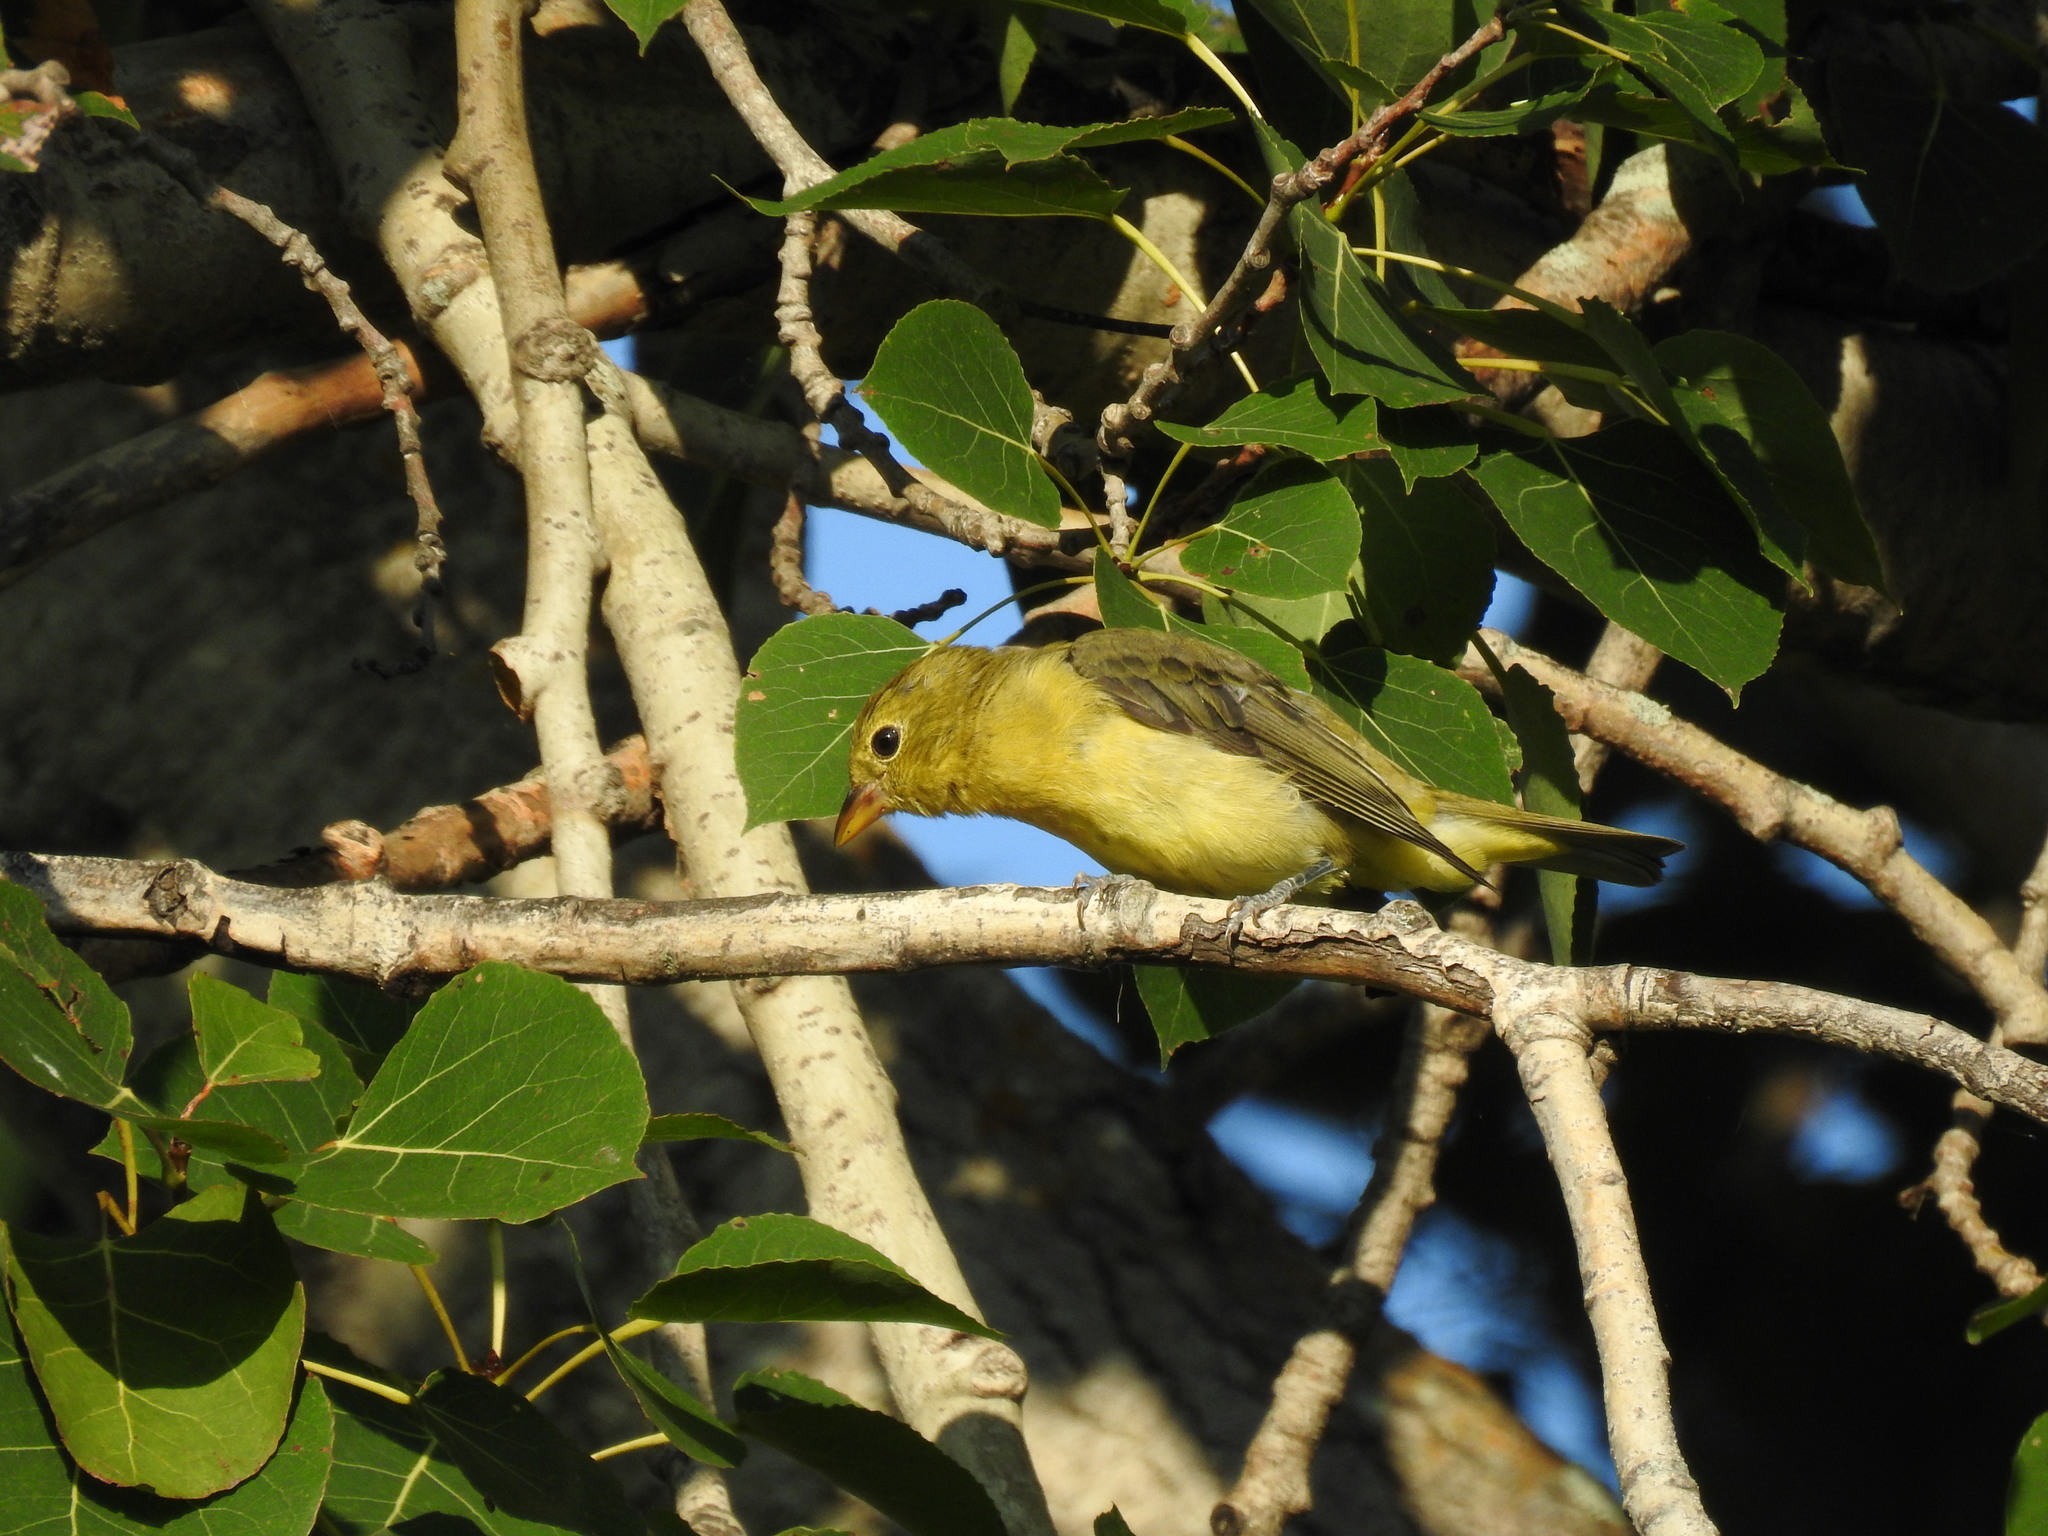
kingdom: Animalia
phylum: Chordata
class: Aves
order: Passeriformes
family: Cardinalidae
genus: Piranga
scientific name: Piranga olivacea
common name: Scarlet tanager
